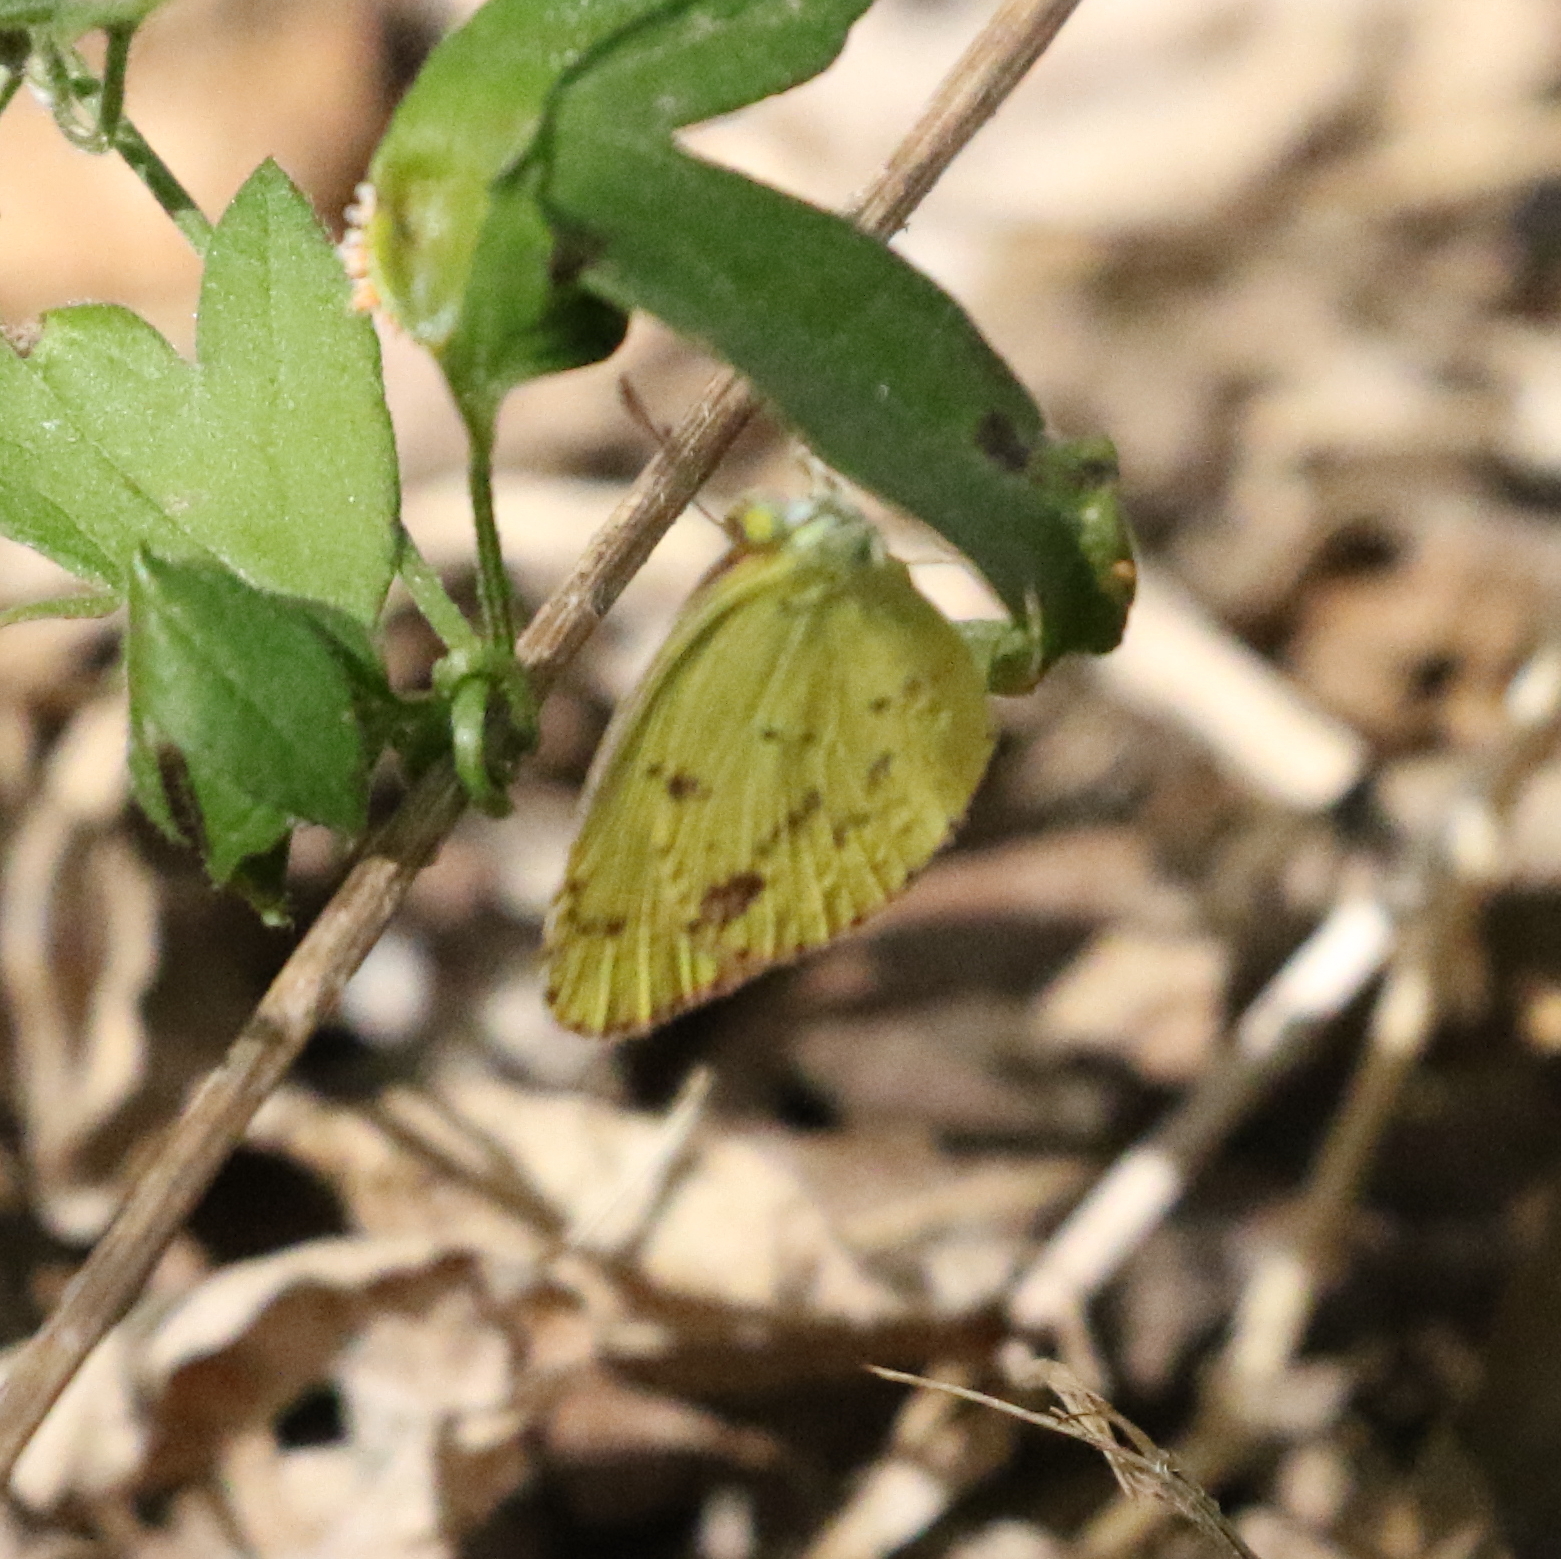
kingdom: Animalia
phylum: Arthropoda
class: Insecta
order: Lepidoptera
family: Pieridae
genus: Pyrisitia
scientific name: Pyrisitia lisa
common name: Little yellow
